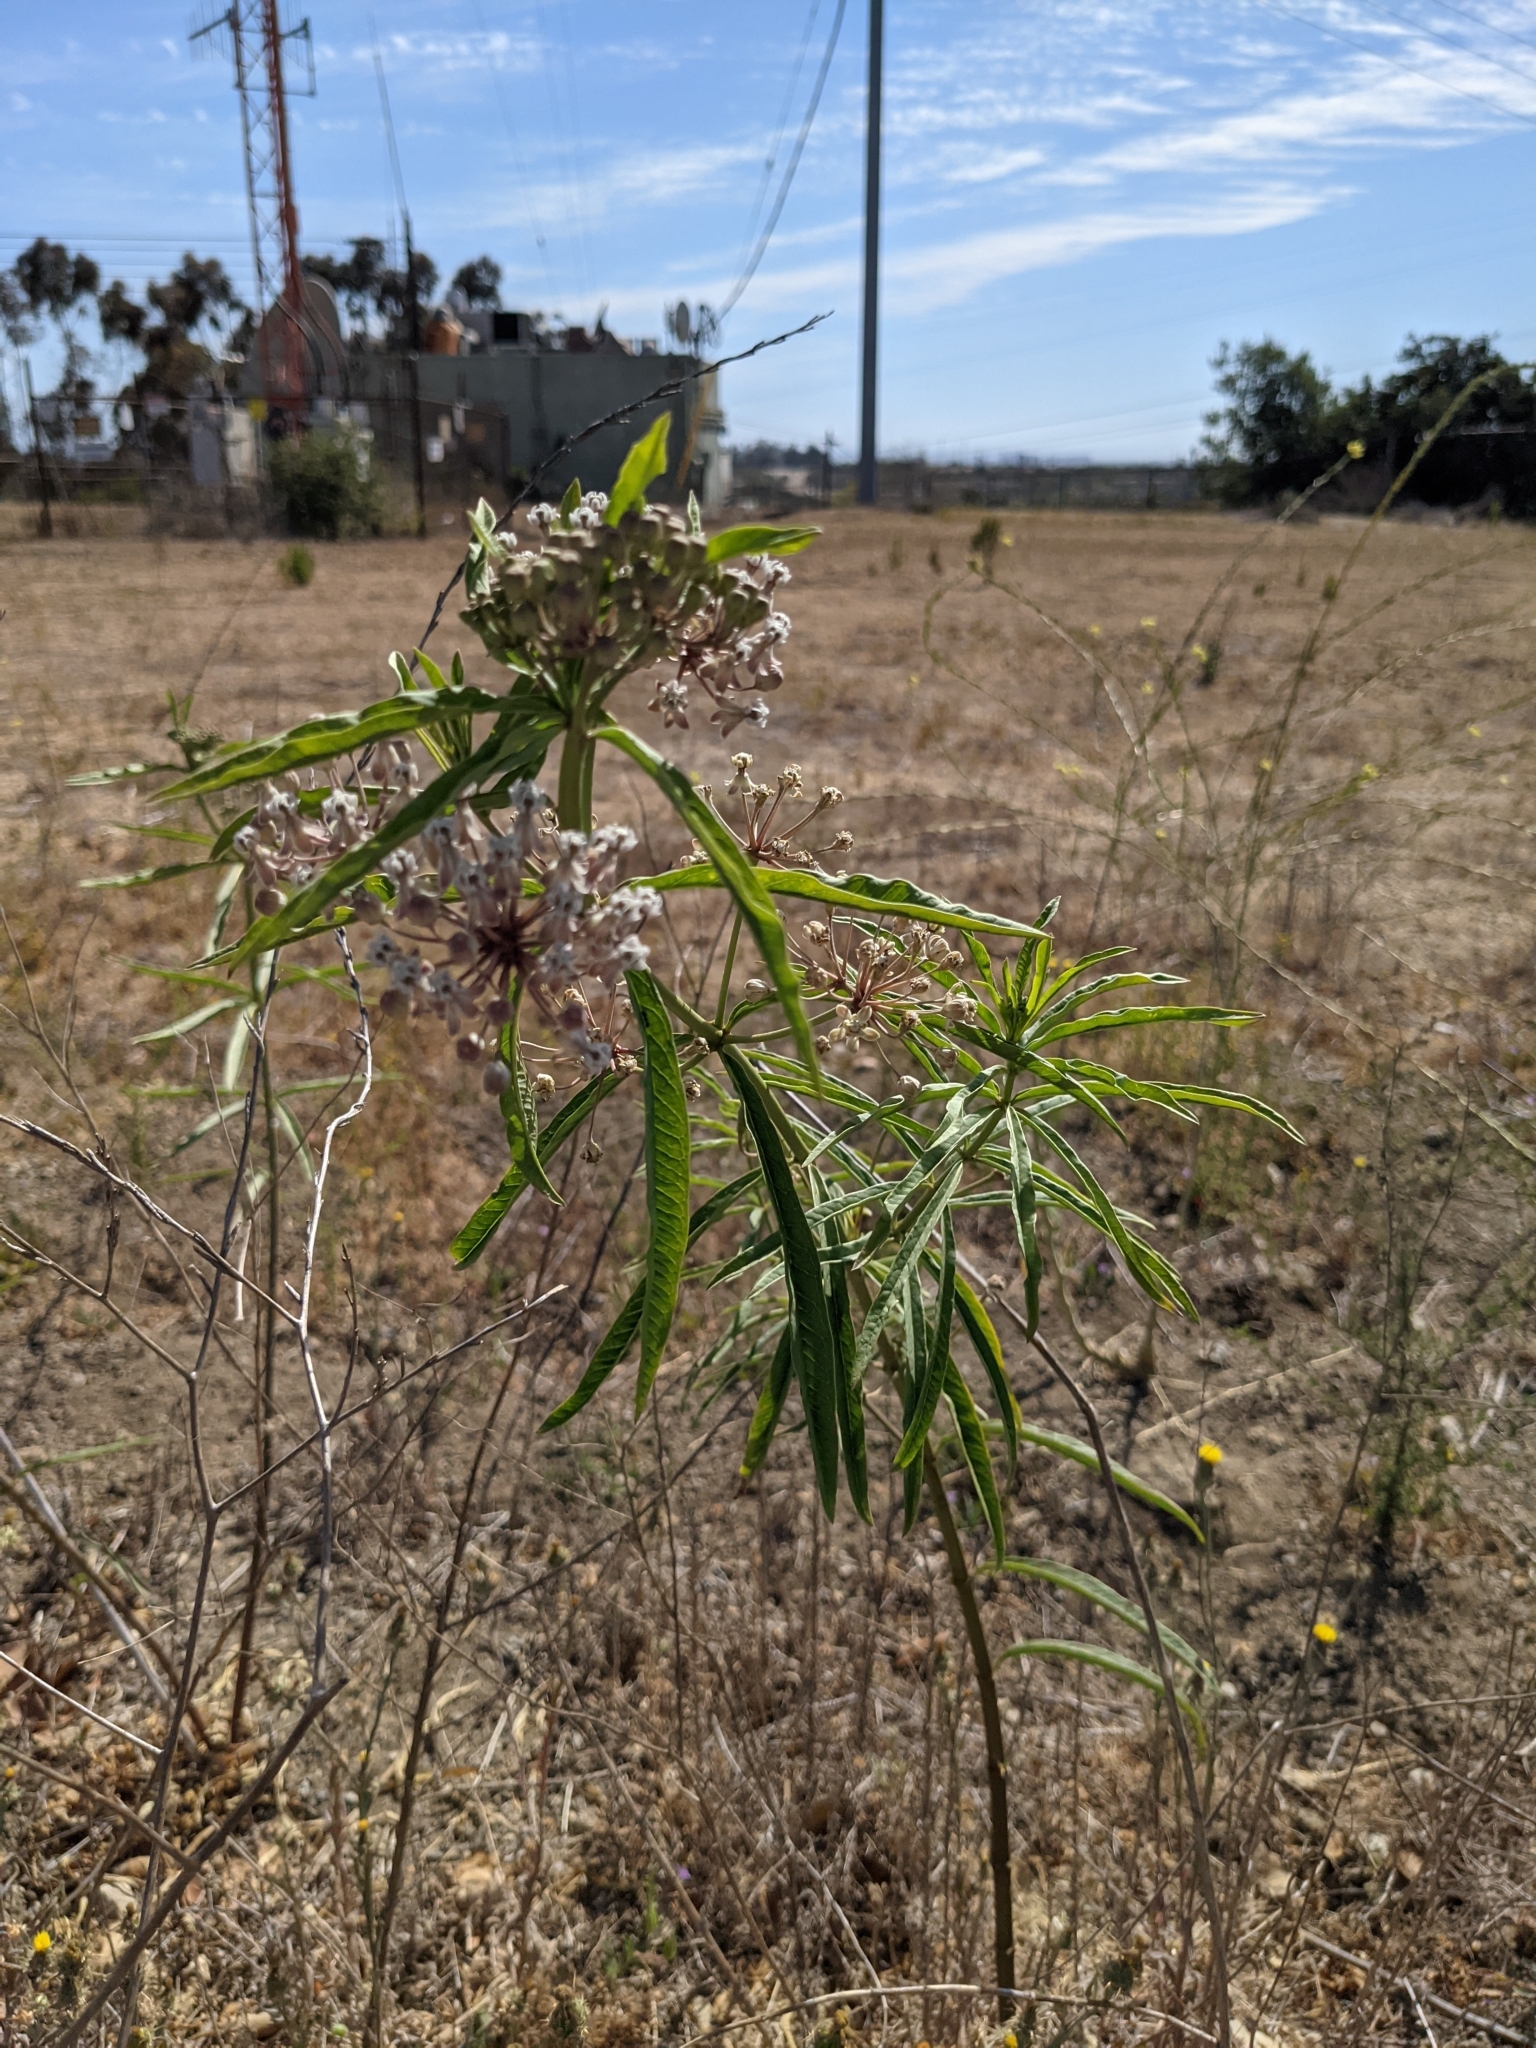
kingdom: Plantae
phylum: Tracheophyta
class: Magnoliopsida
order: Gentianales
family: Apocynaceae
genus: Asclepias
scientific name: Asclepias fascicularis
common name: Mexican milkweed
